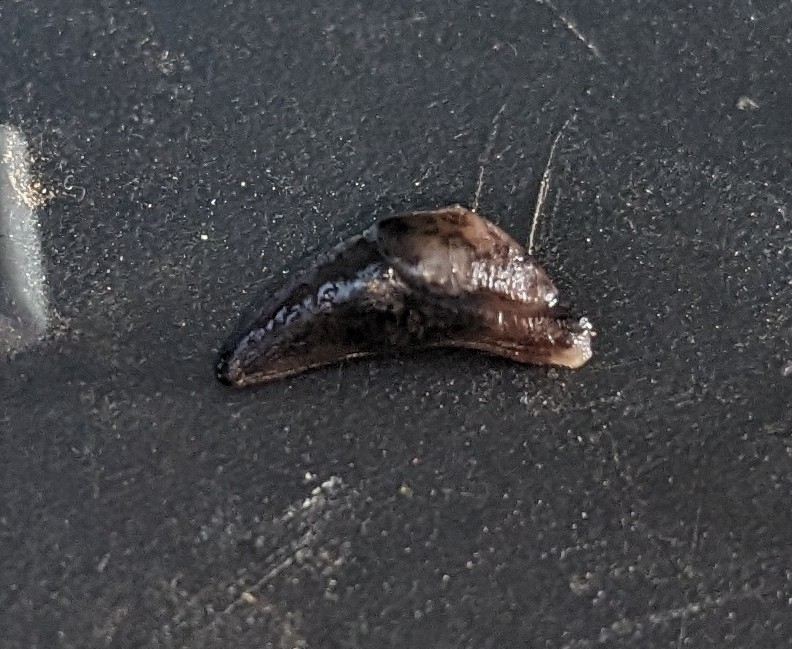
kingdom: Animalia
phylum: Mollusca
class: Gastropoda
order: Stylommatophora
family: Agriolimacidae
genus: Deroceras
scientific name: Deroceras laeve
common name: Marsh slug
